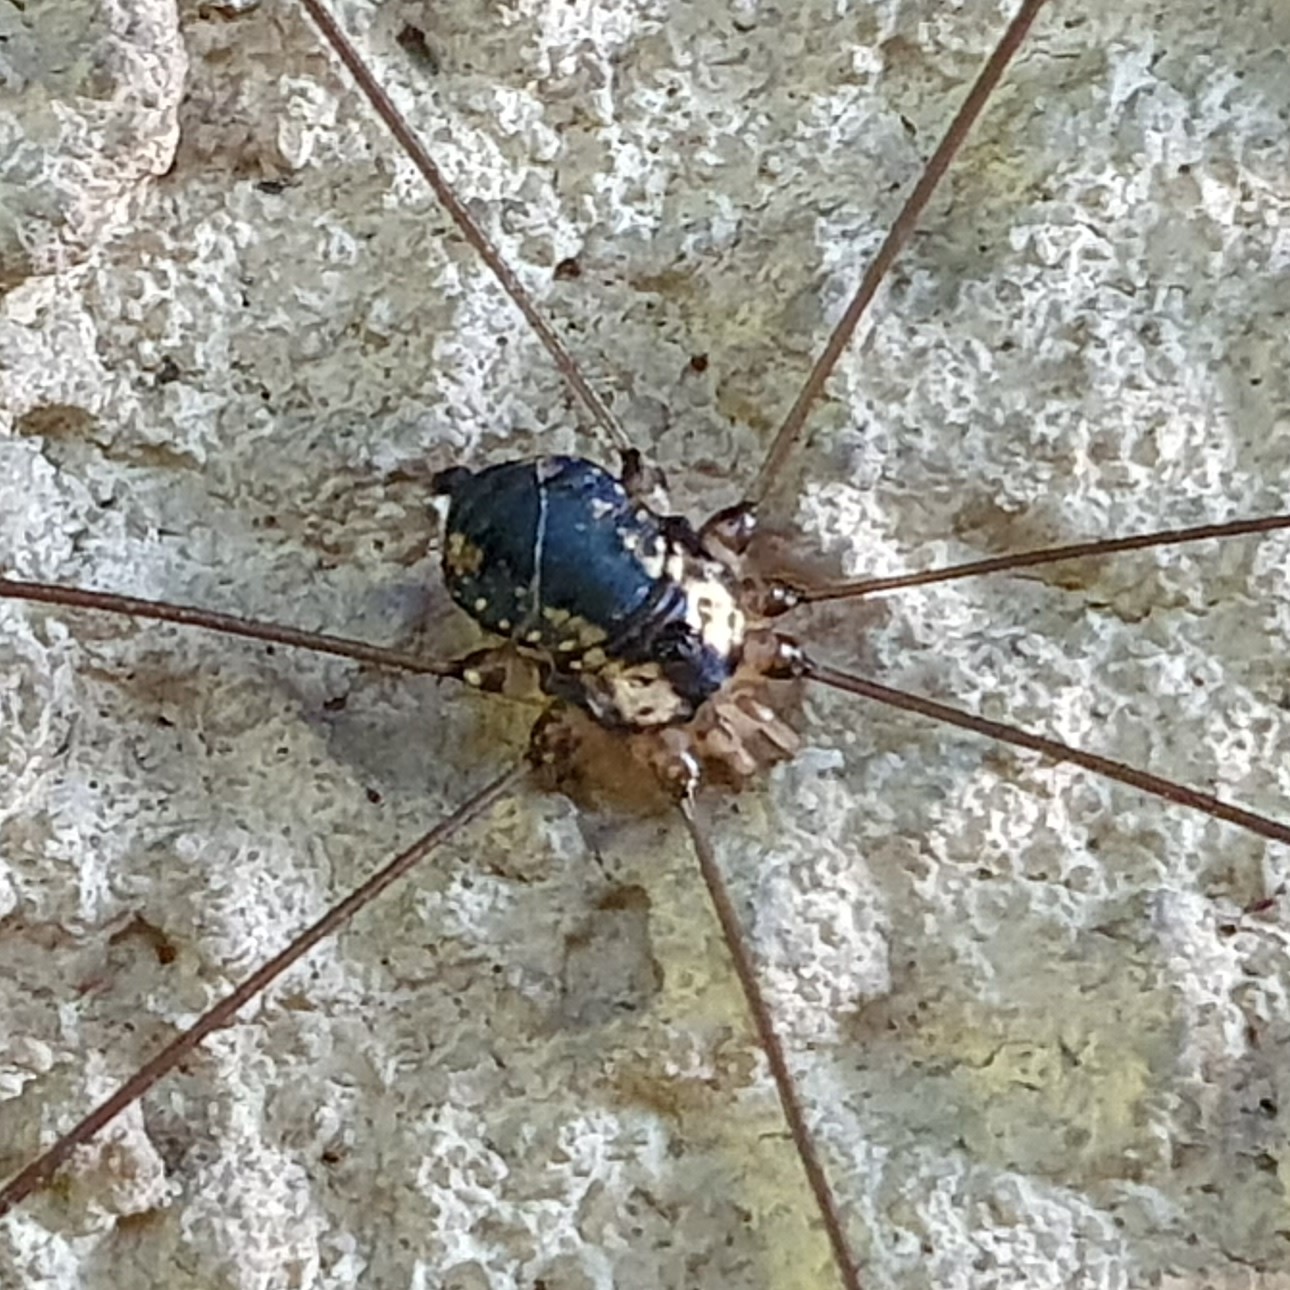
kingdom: Animalia
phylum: Arthropoda
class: Arachnida
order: Opiliones
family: Sclerosomatidae
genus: Leiobunum
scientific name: Leiobunum
